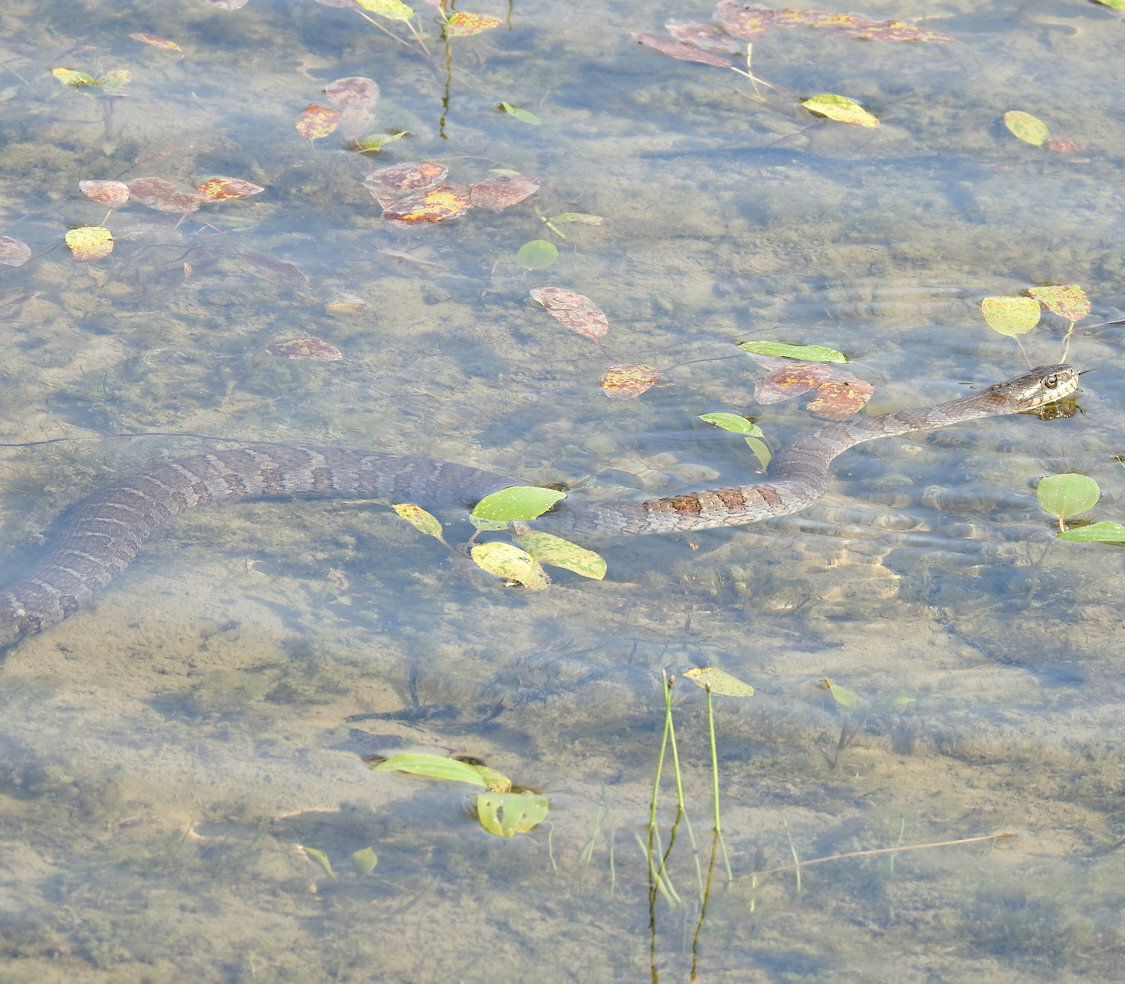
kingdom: Animalia
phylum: Chordata
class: Squamata
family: Colubridae
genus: Nerodia
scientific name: Nerodia sipedon
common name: Northern water snake
